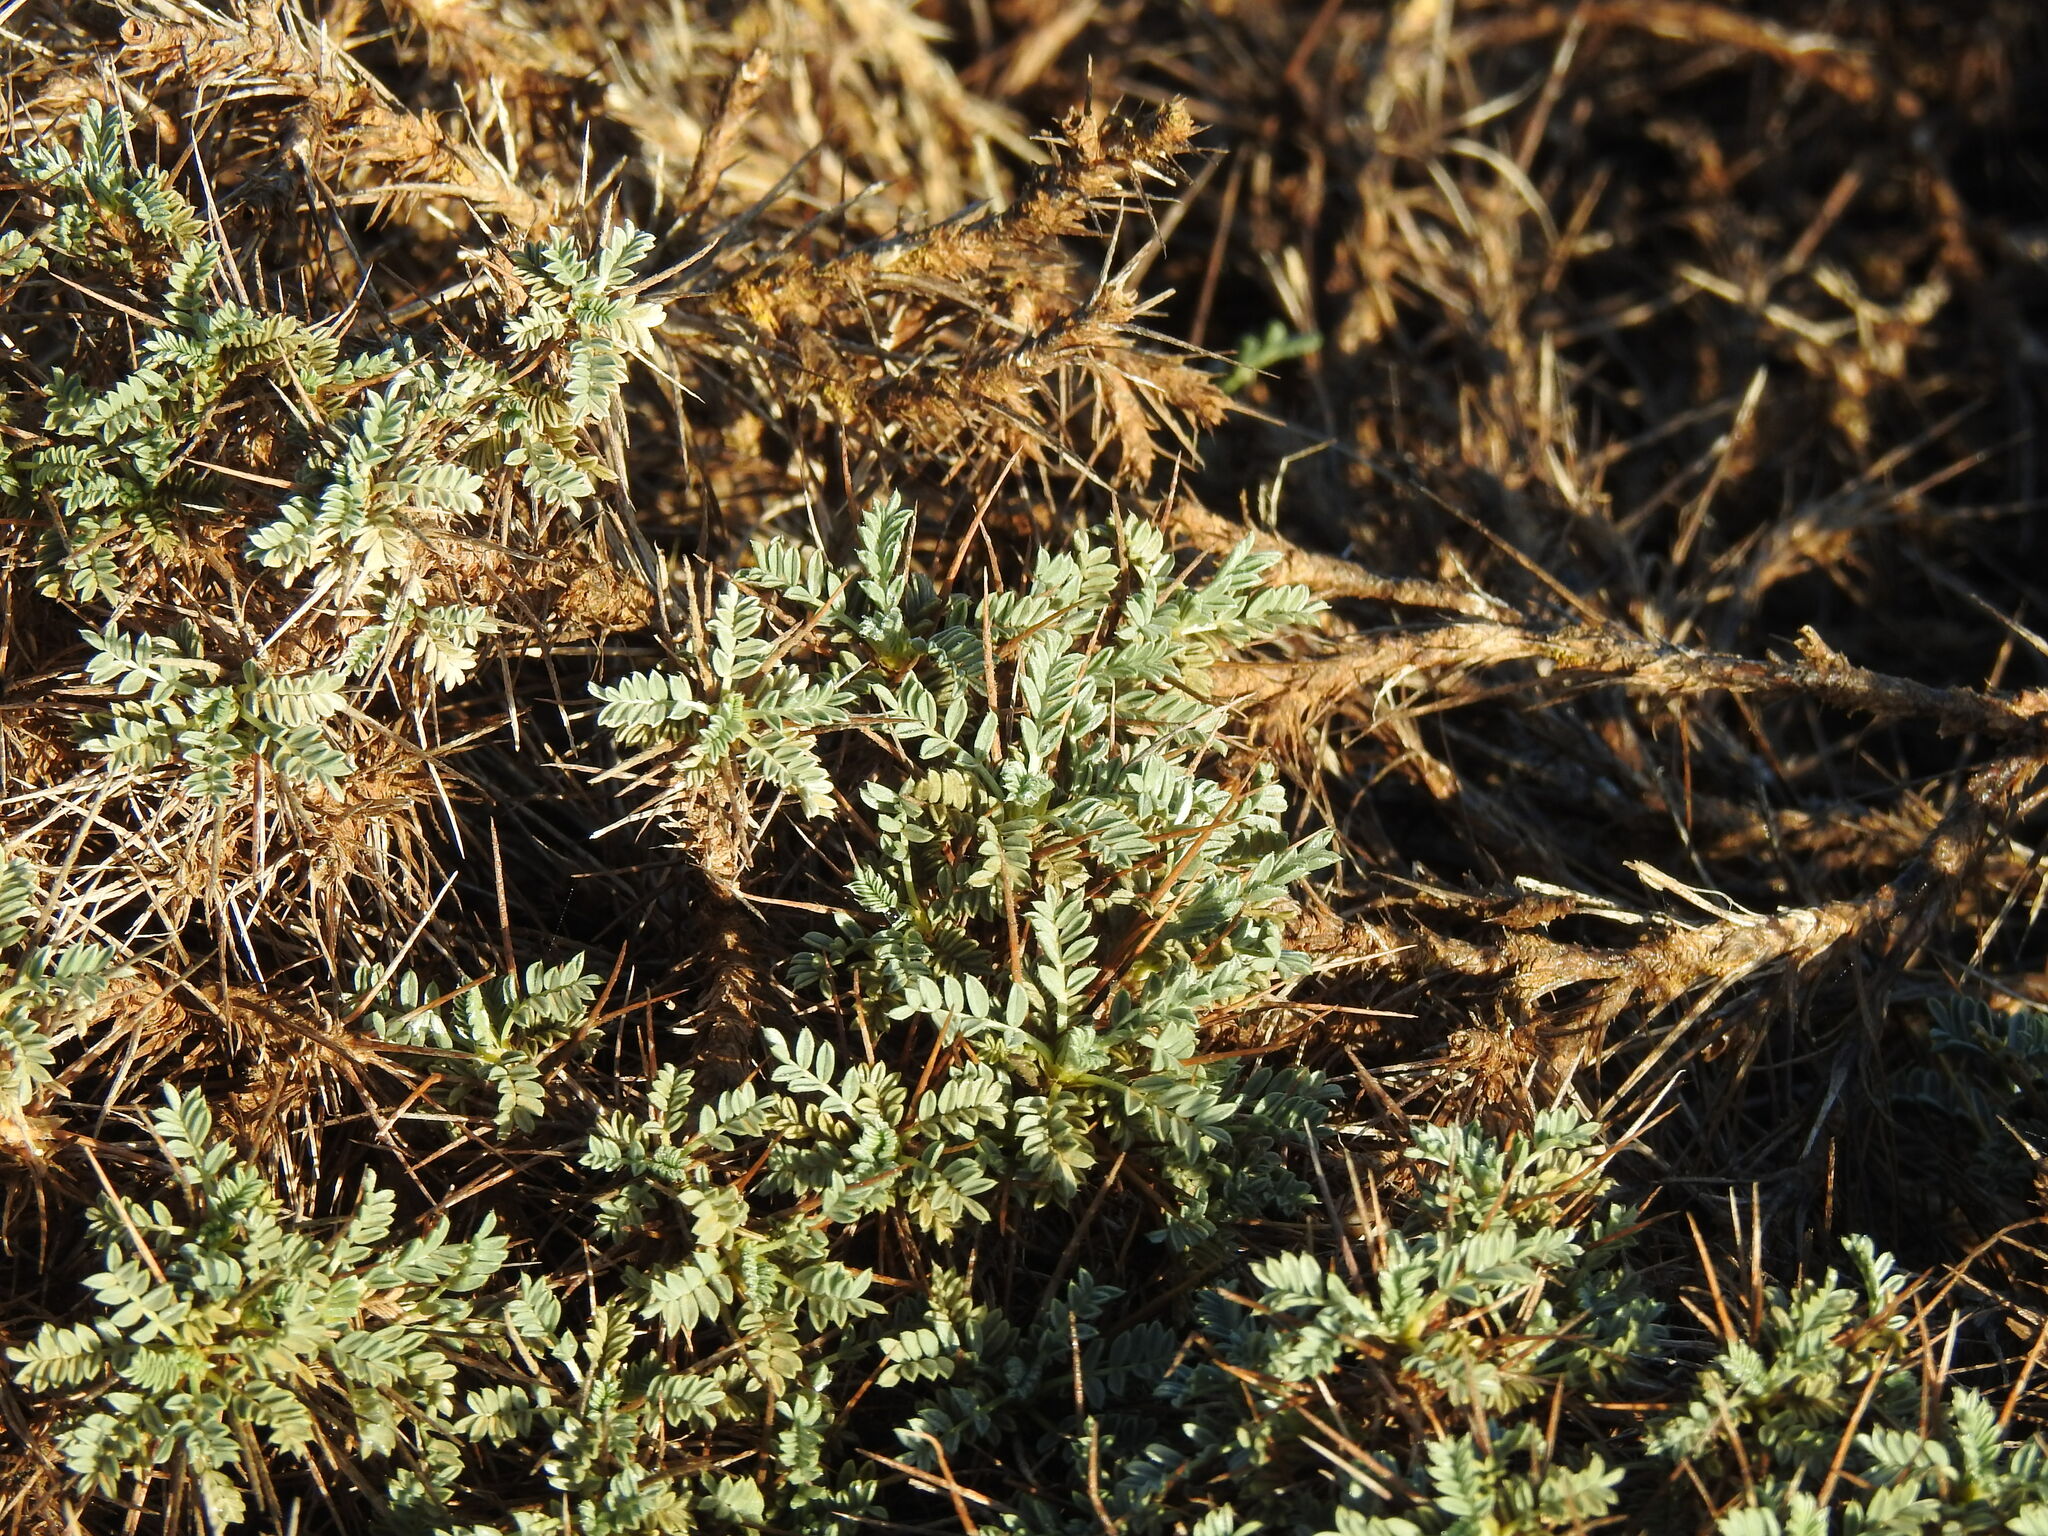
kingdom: Plantae
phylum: Tracheophyta
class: Magnoliopsida
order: Fabales
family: Fabaceae
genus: Astragalus
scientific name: Astragalus tragacantha
